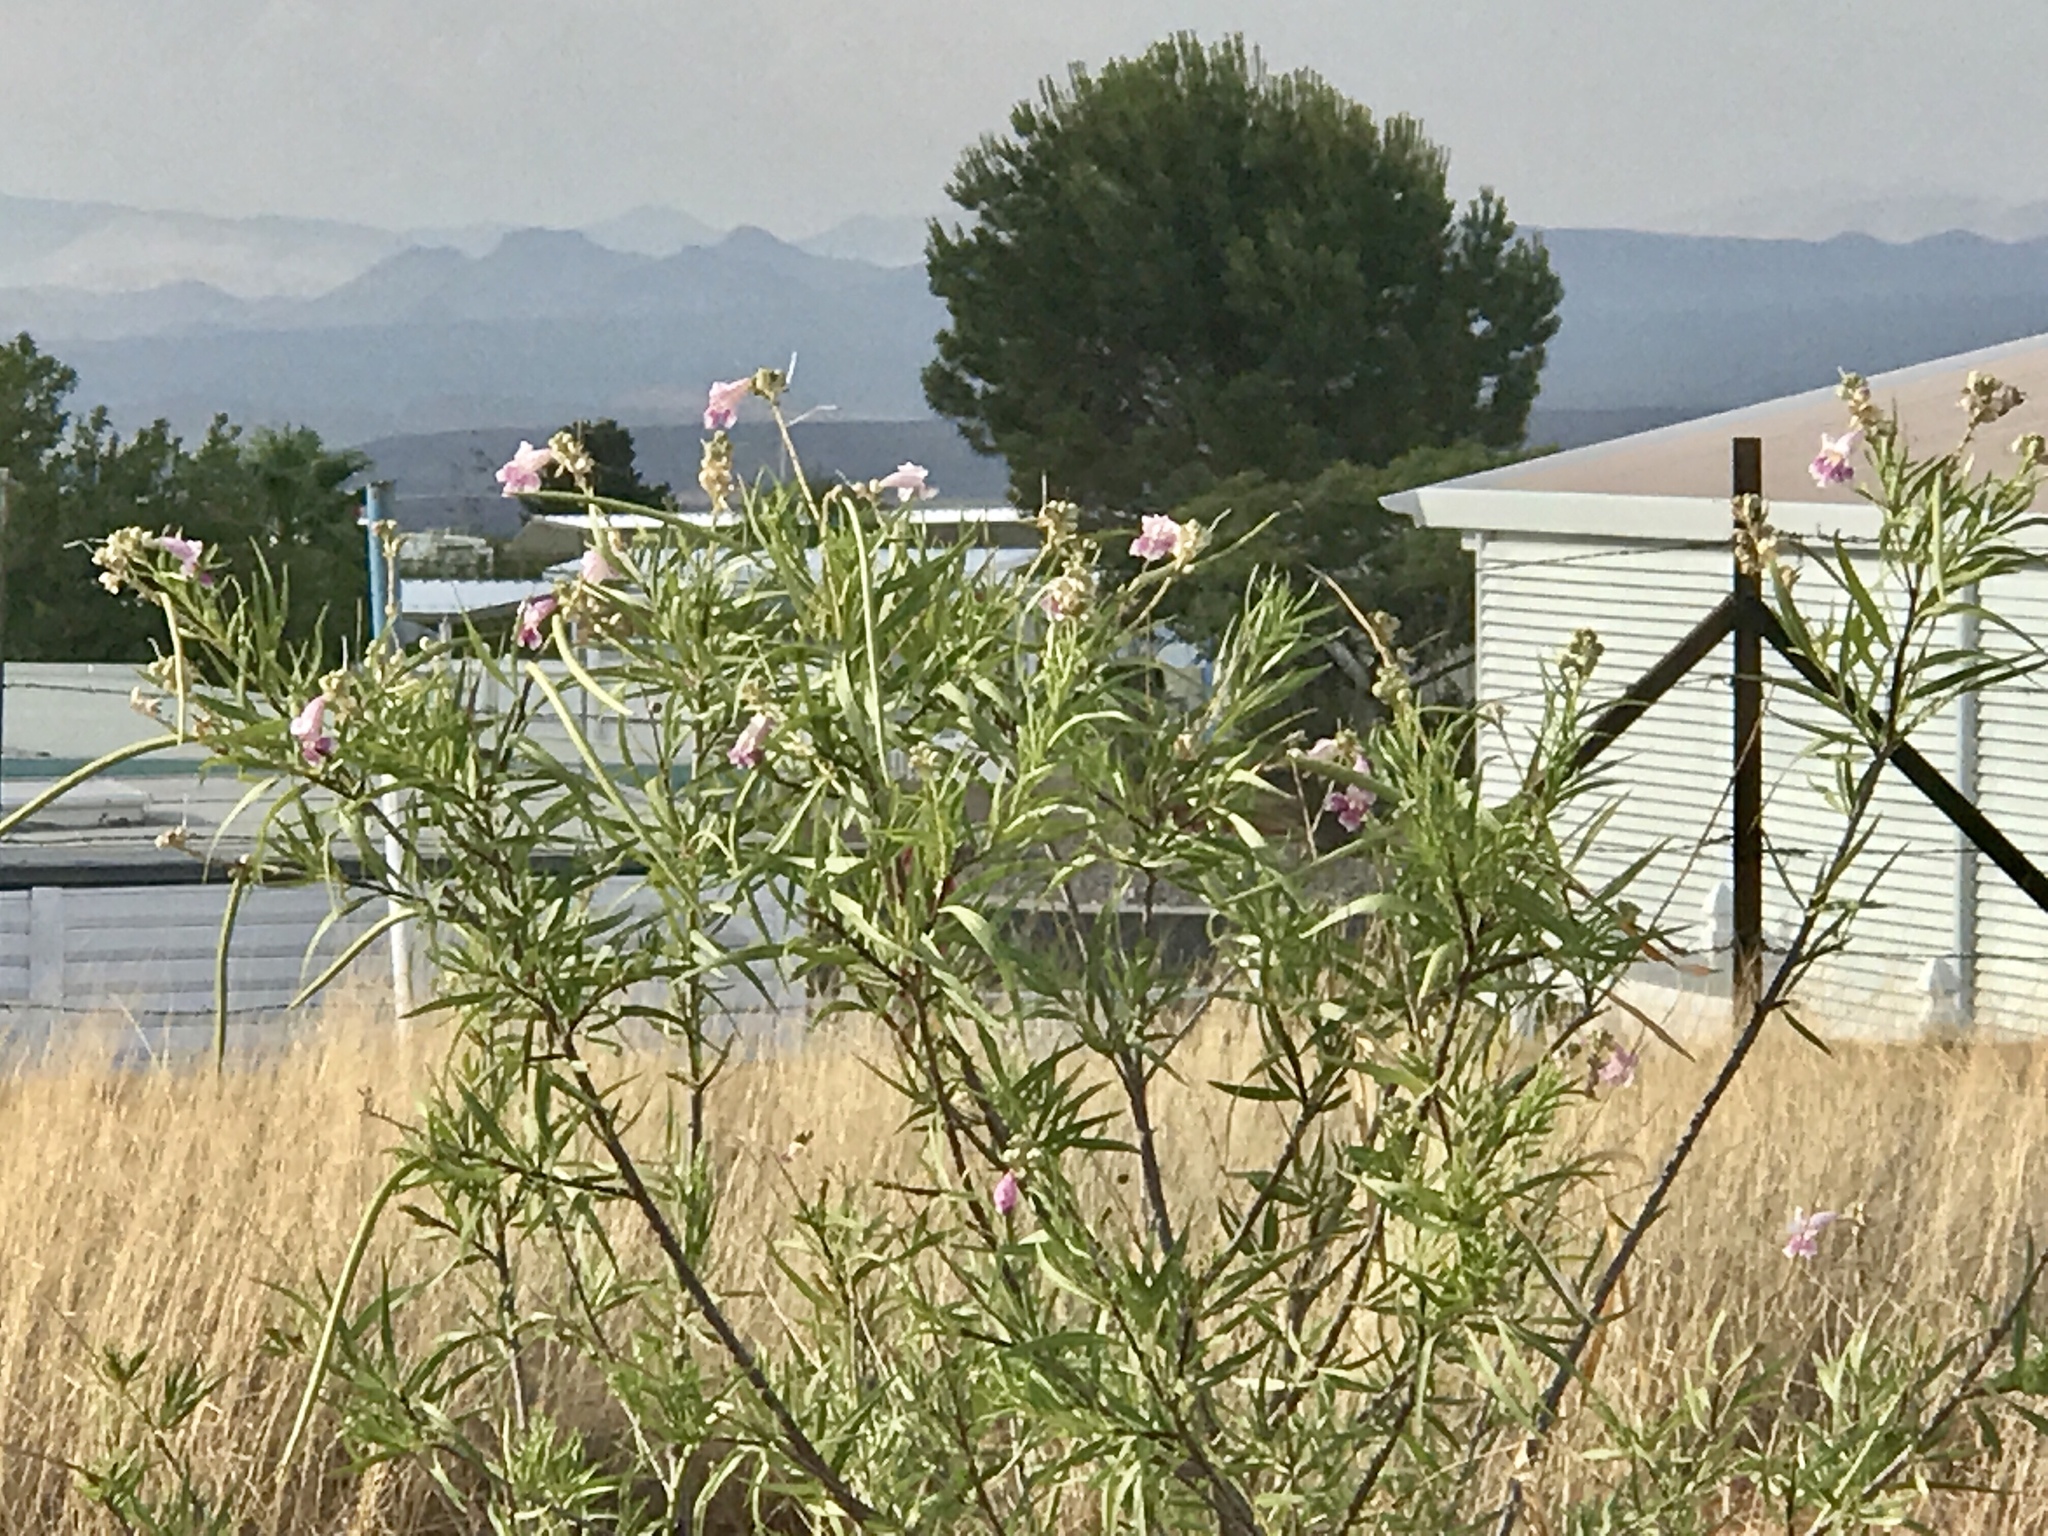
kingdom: Plantae
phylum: Tracheophyta
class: Magnoliopsida
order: Lamiales
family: Bignoniaceae
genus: Chilopsis
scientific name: Chilopsis linearis
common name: Desert-willow
